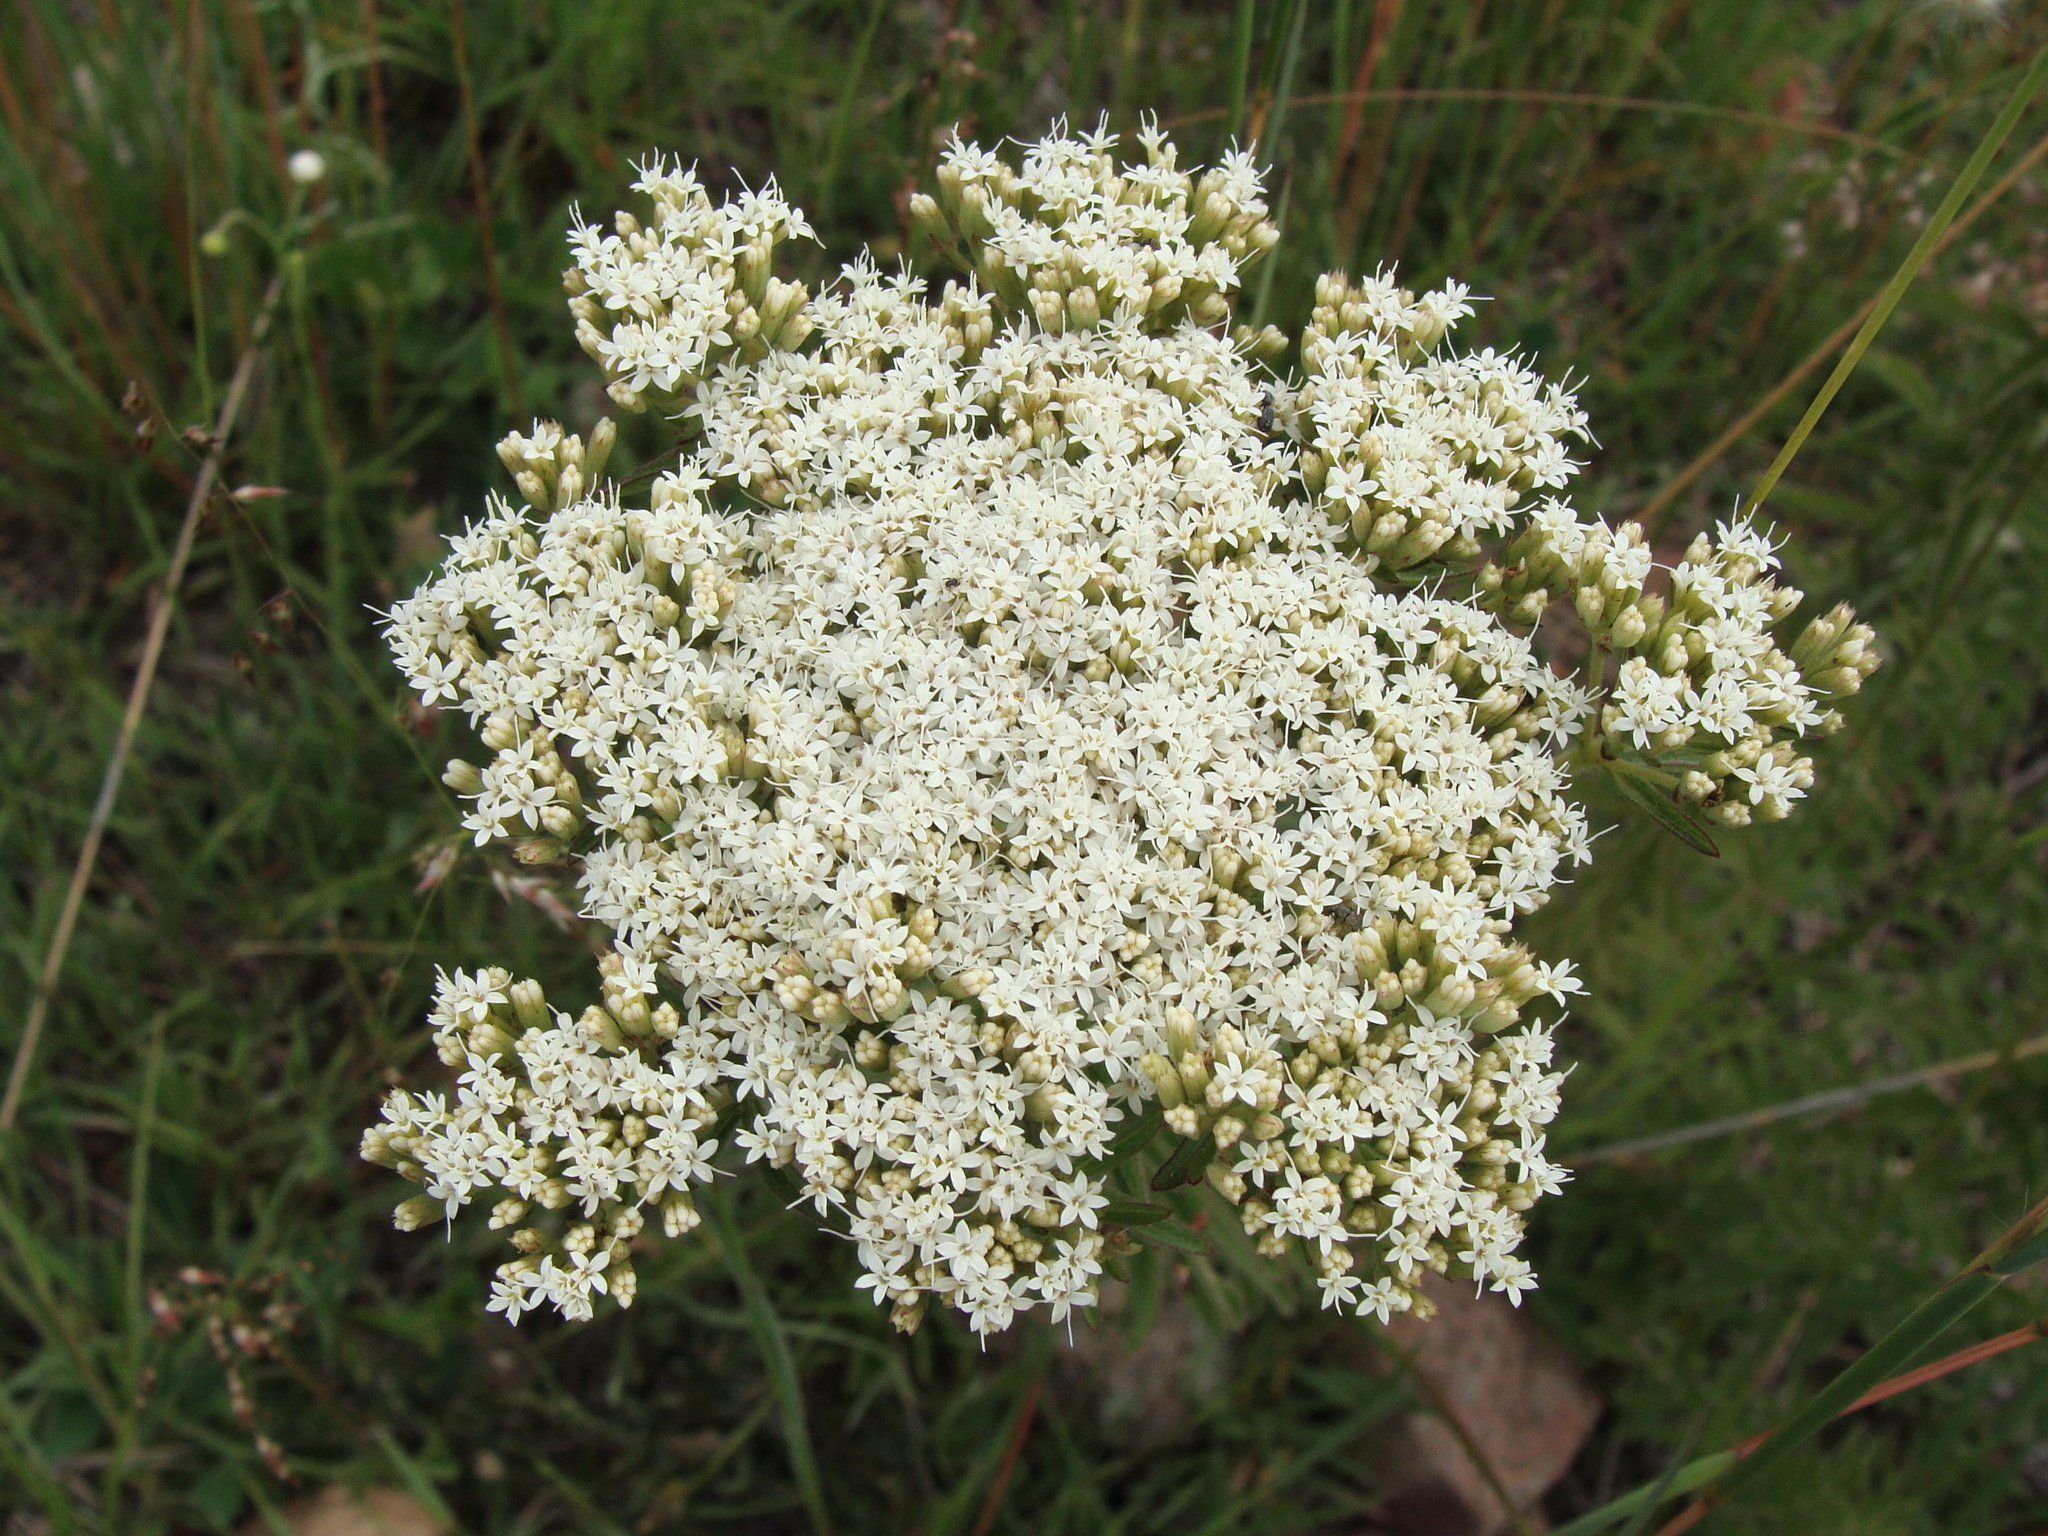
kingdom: Plantae
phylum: Tracheophyta
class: Magnoliopsida
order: Asterales
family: Asteraceae
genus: Stevia
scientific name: Stevia serrata
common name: Sawtooth candyleaf
